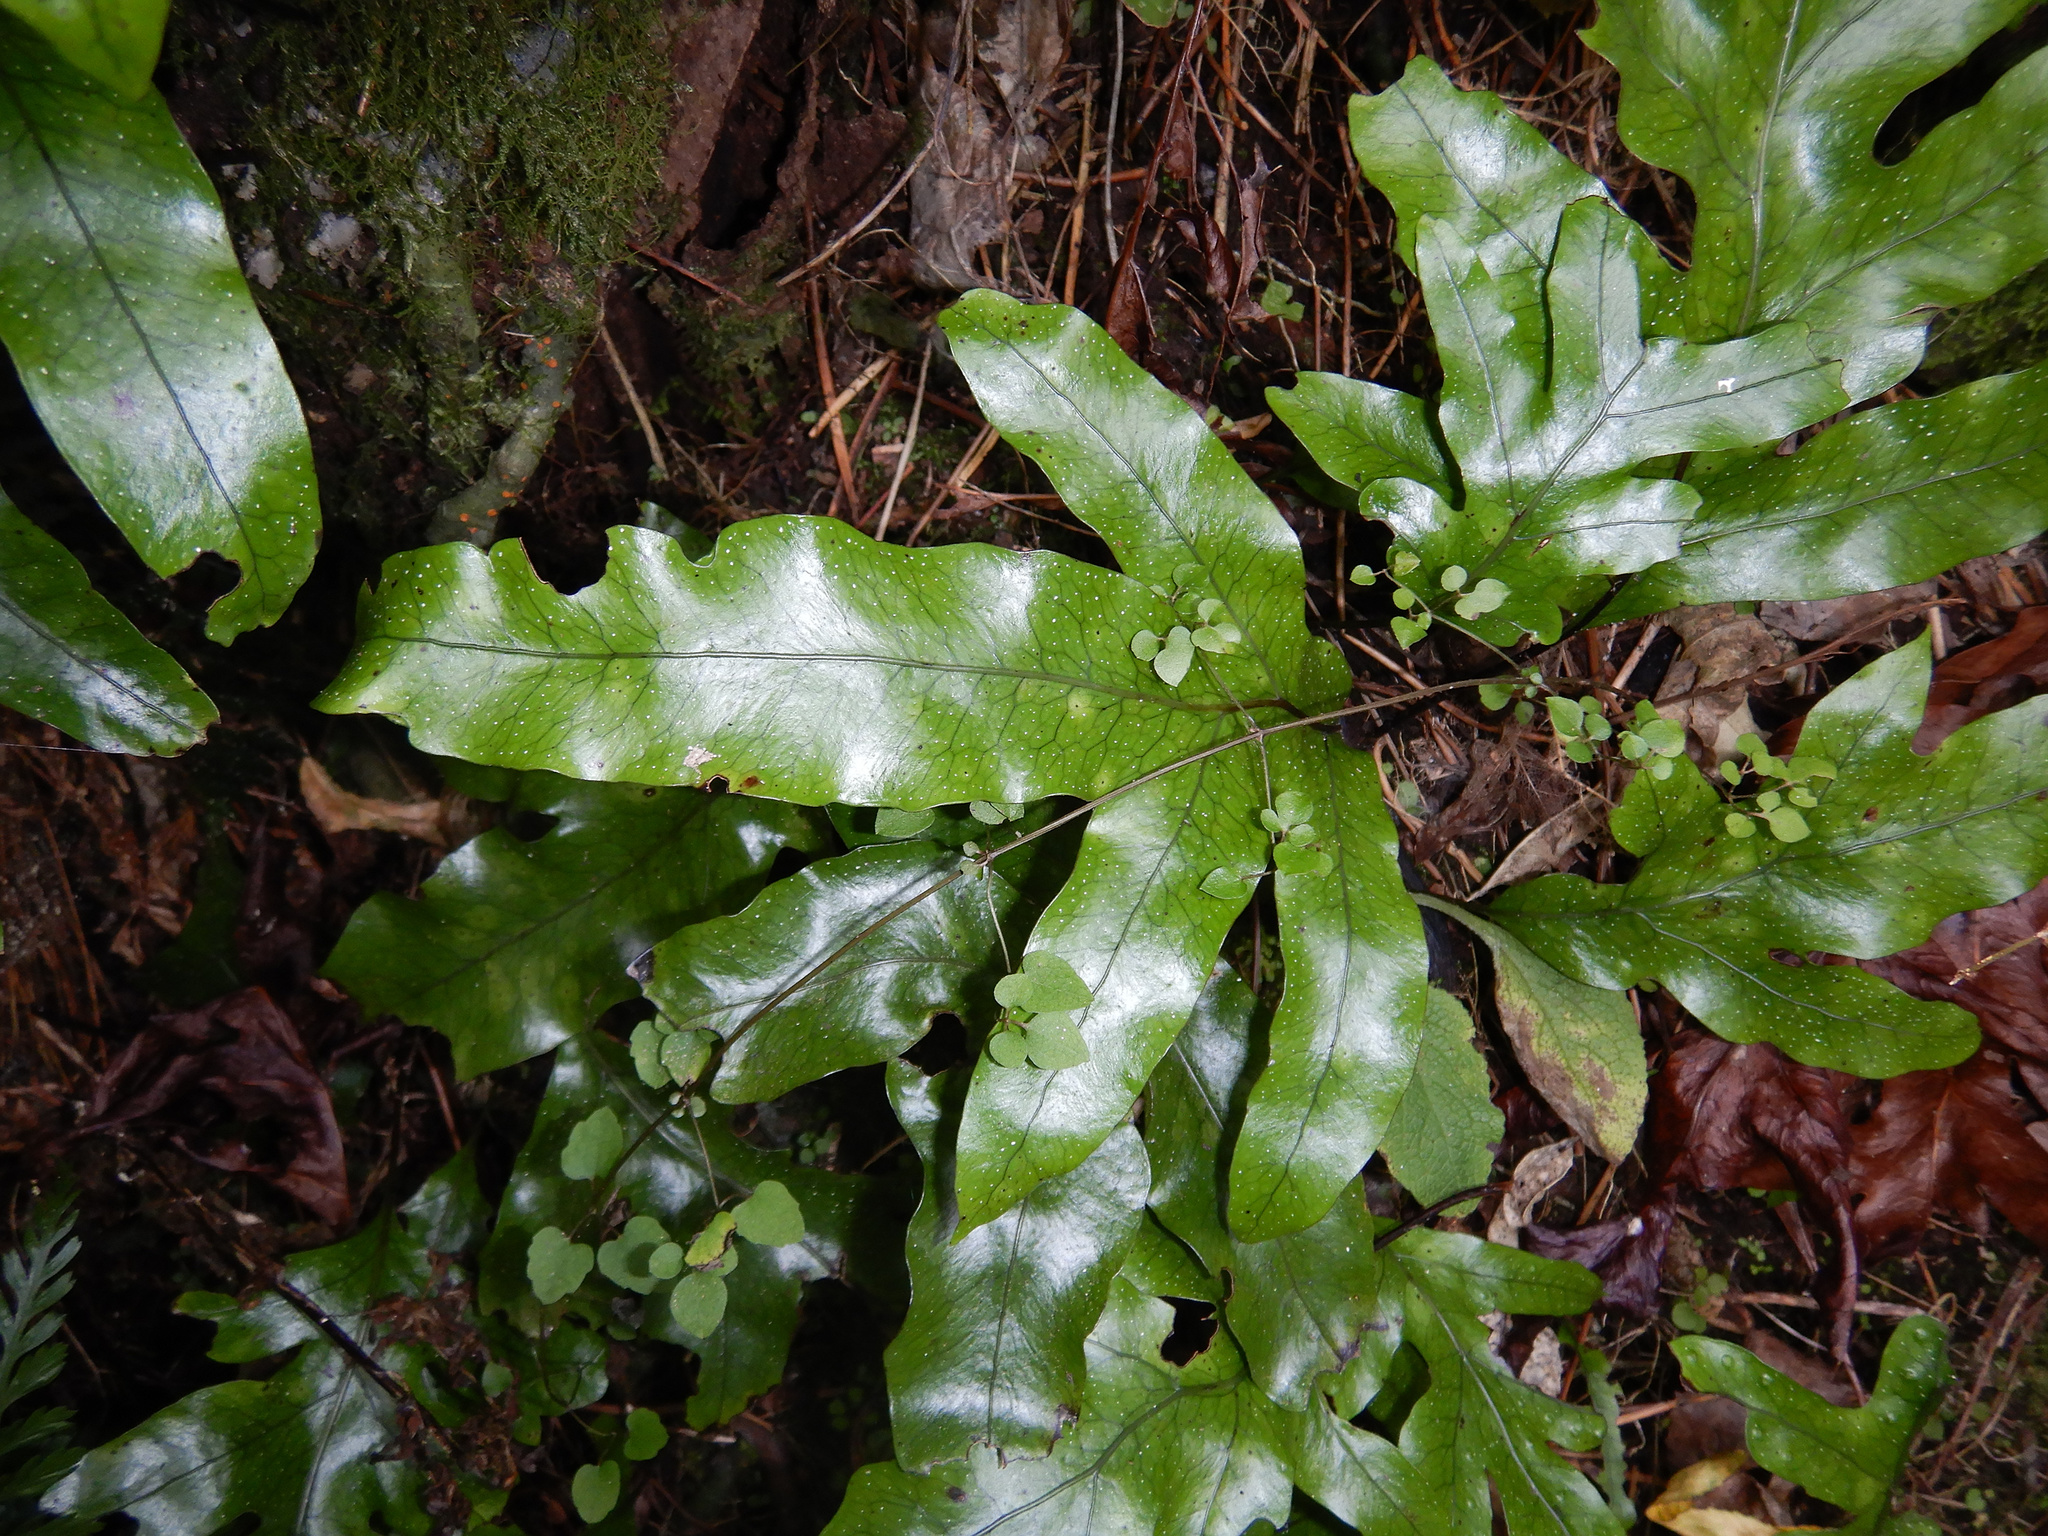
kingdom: Plantae
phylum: Tracheophyta
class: Polypodiopsida
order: Polypodiales
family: Polypodiaceae
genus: Lecanopteris
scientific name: Lecanopteris pustulata
